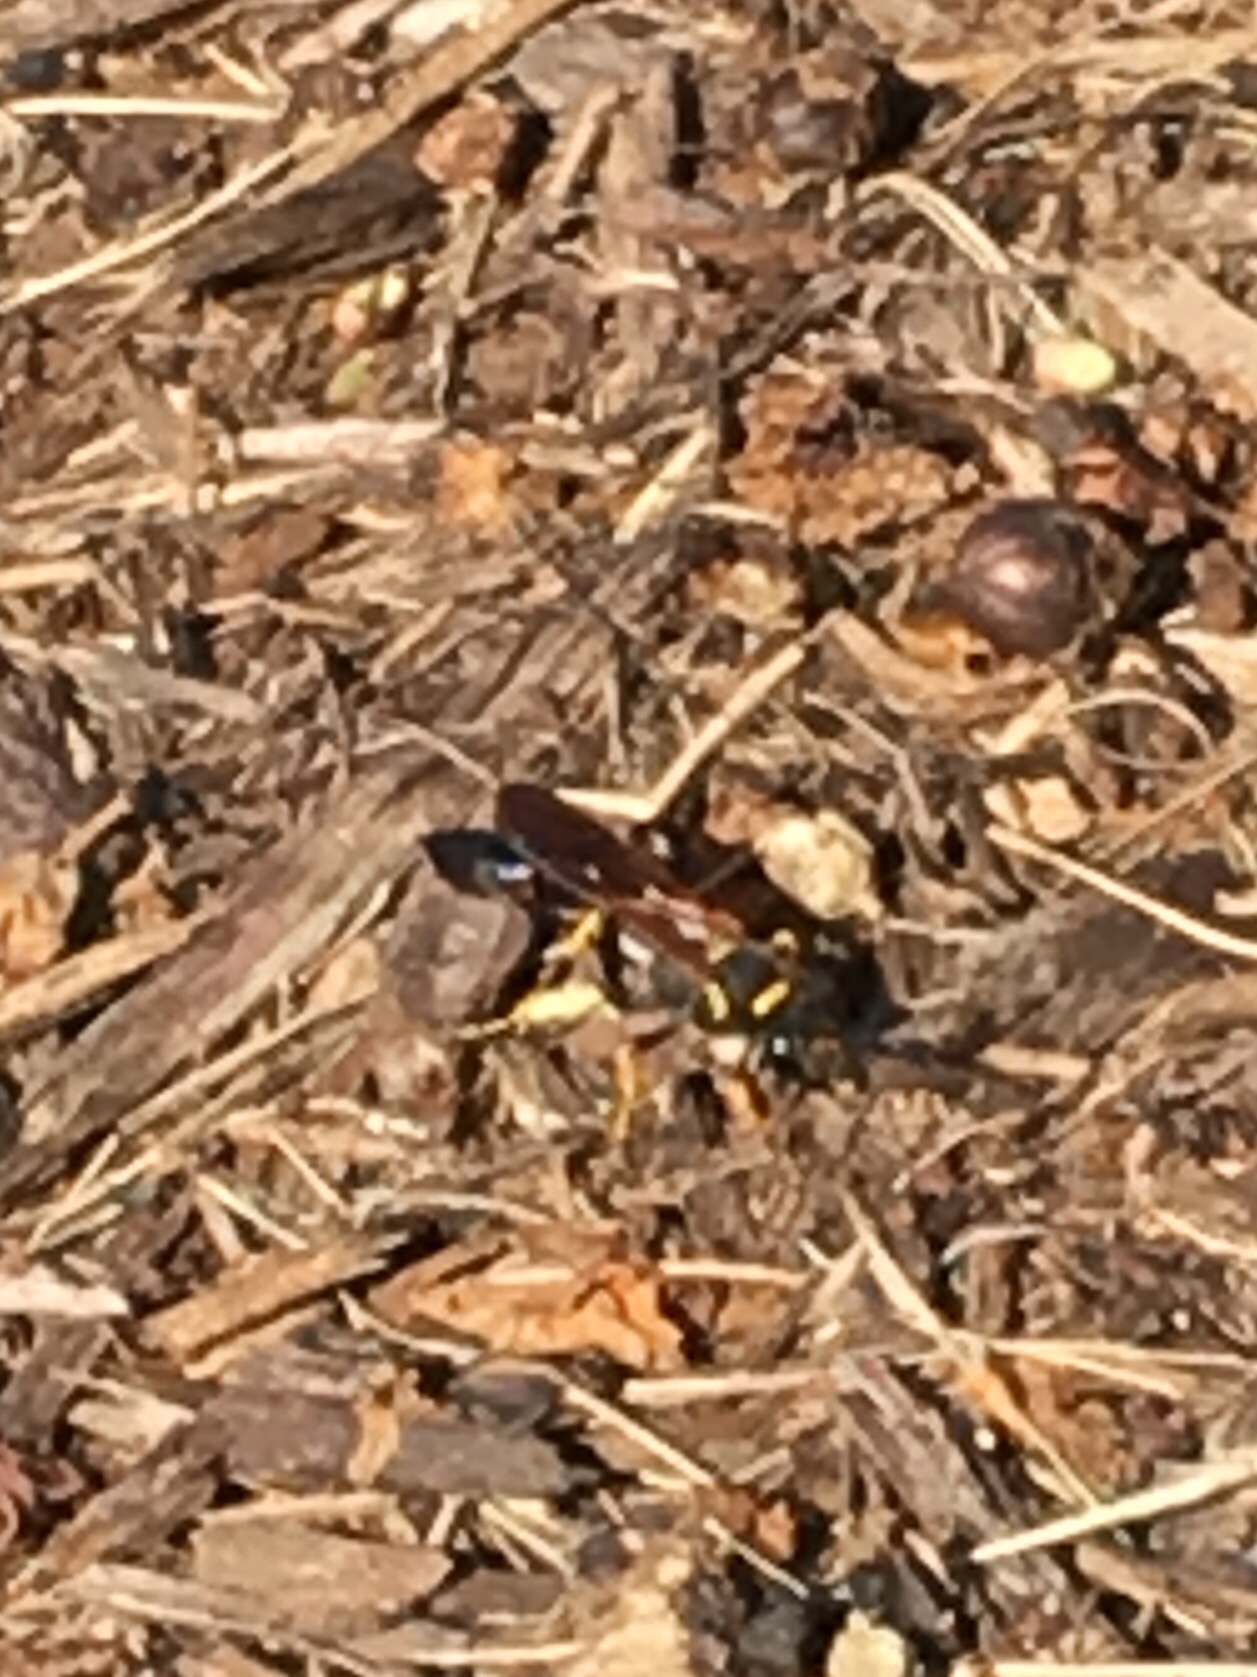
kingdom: Animalia
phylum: Arthropoda
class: Insecta
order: Hymenoptera
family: Sphecidae
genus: Sceliphron
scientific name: Sceliphron caementarium
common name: Mud dauber
